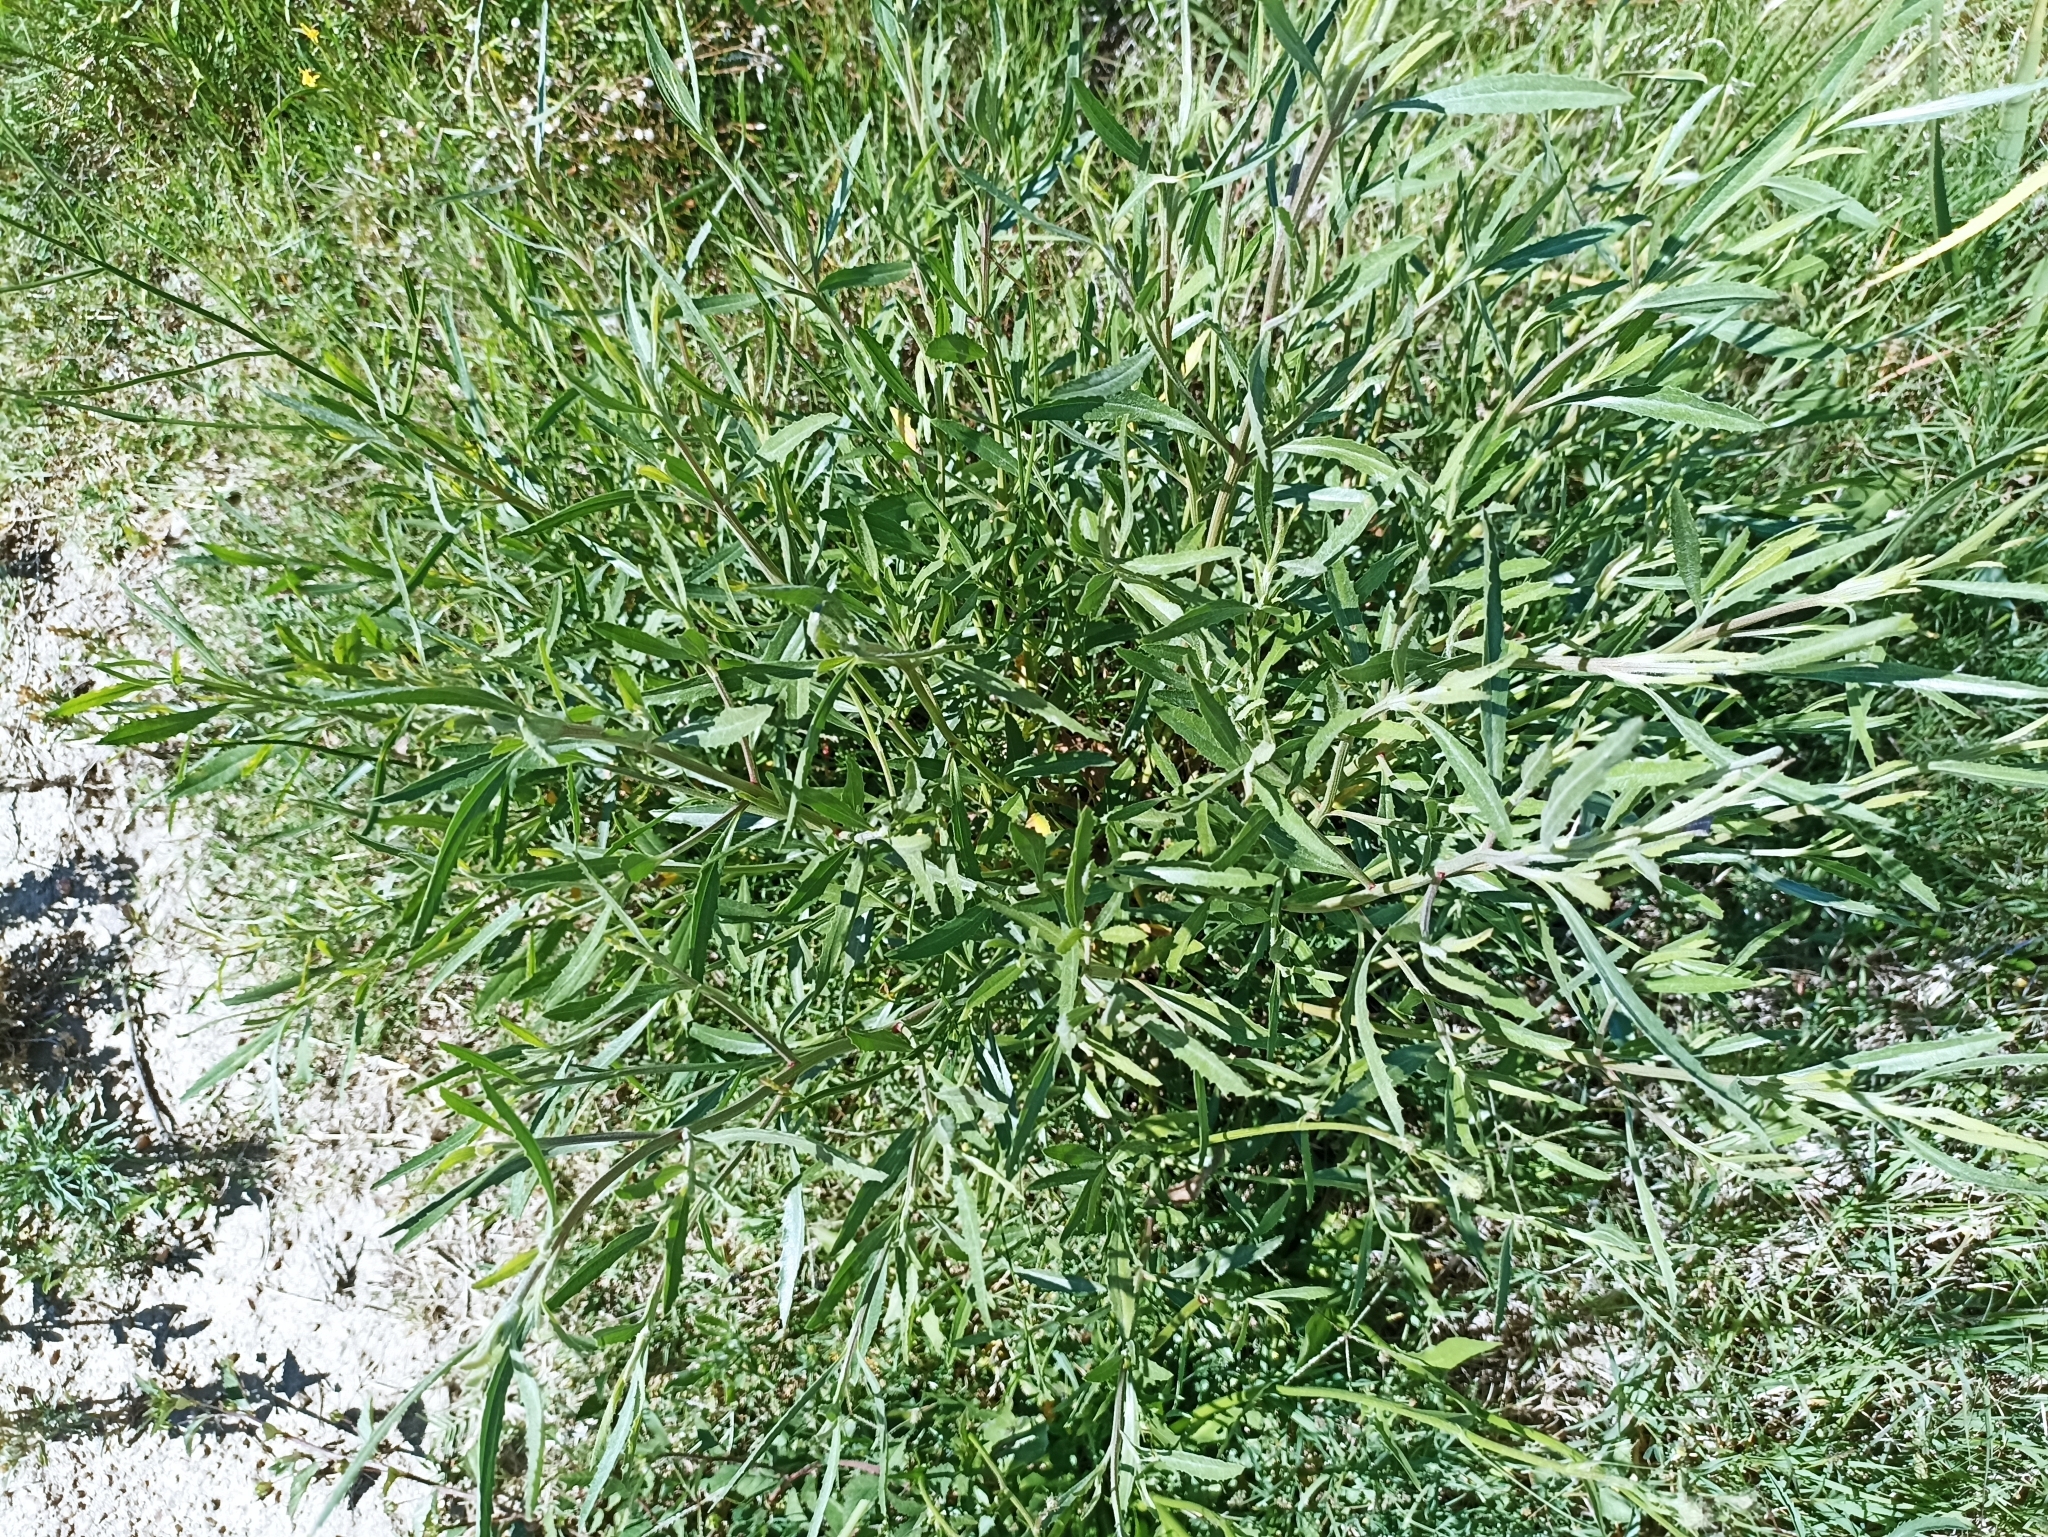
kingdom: Plantae
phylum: Tracheophyta
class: Magnoliopsida
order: Asterales
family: Asteraceae
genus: Baccharis
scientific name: Baccharis spicata
